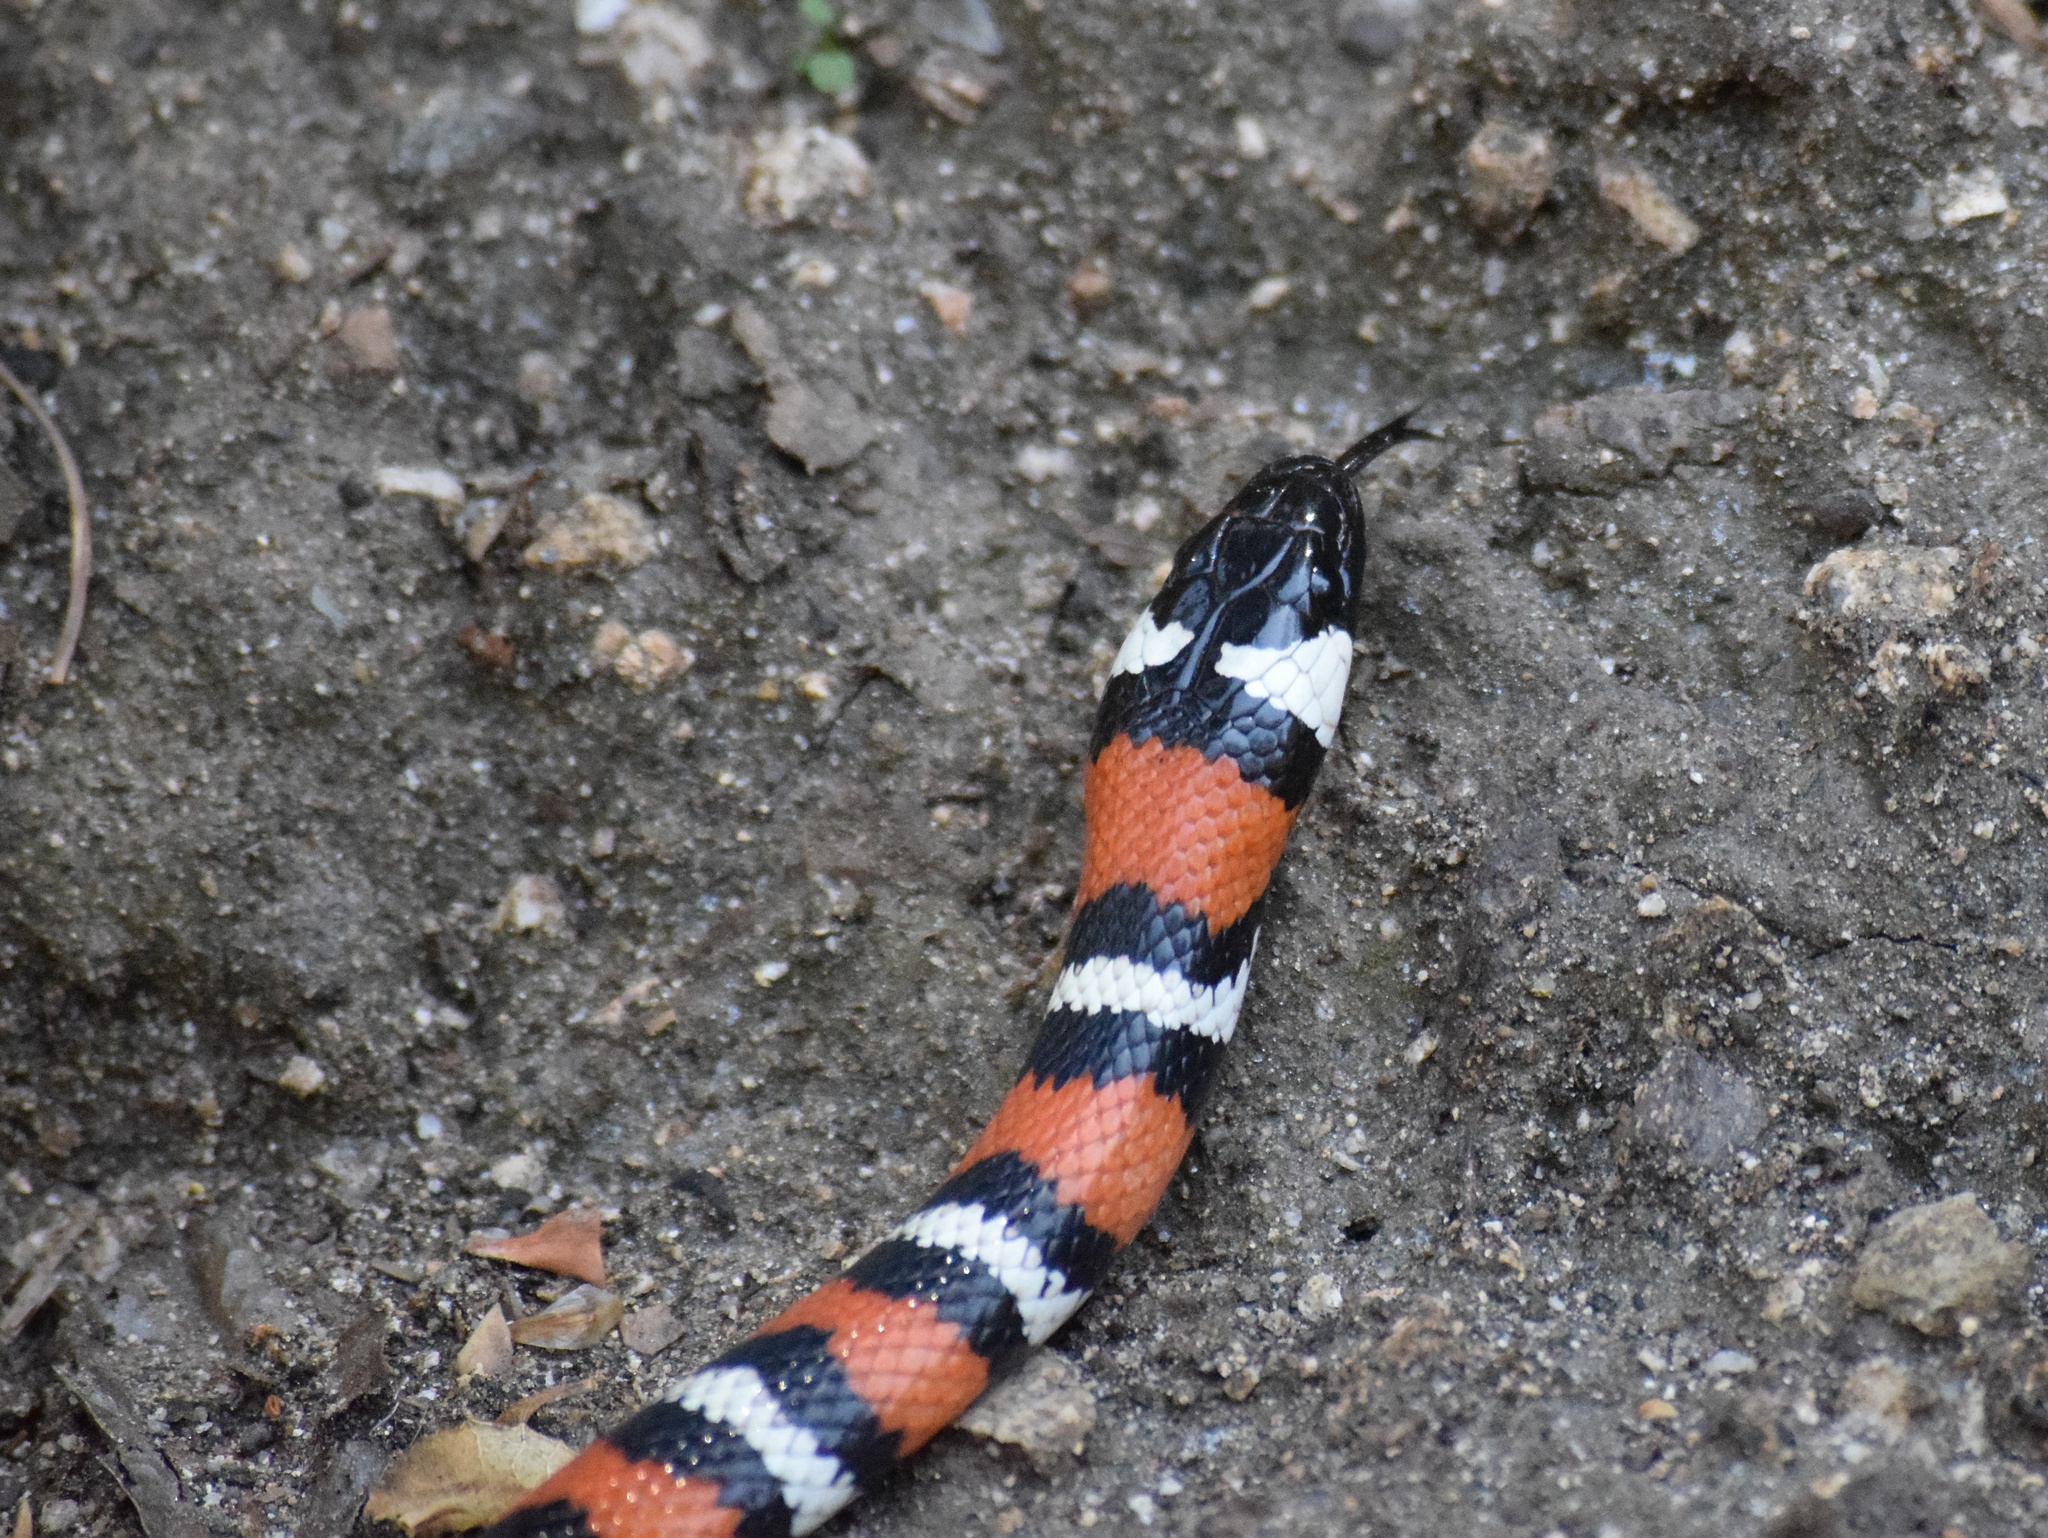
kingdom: Animalia
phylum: Chordata
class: Squamata
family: Colubridae
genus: Lampropeltis
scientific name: Lampropeltis zonata
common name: California mountain kingsnake
